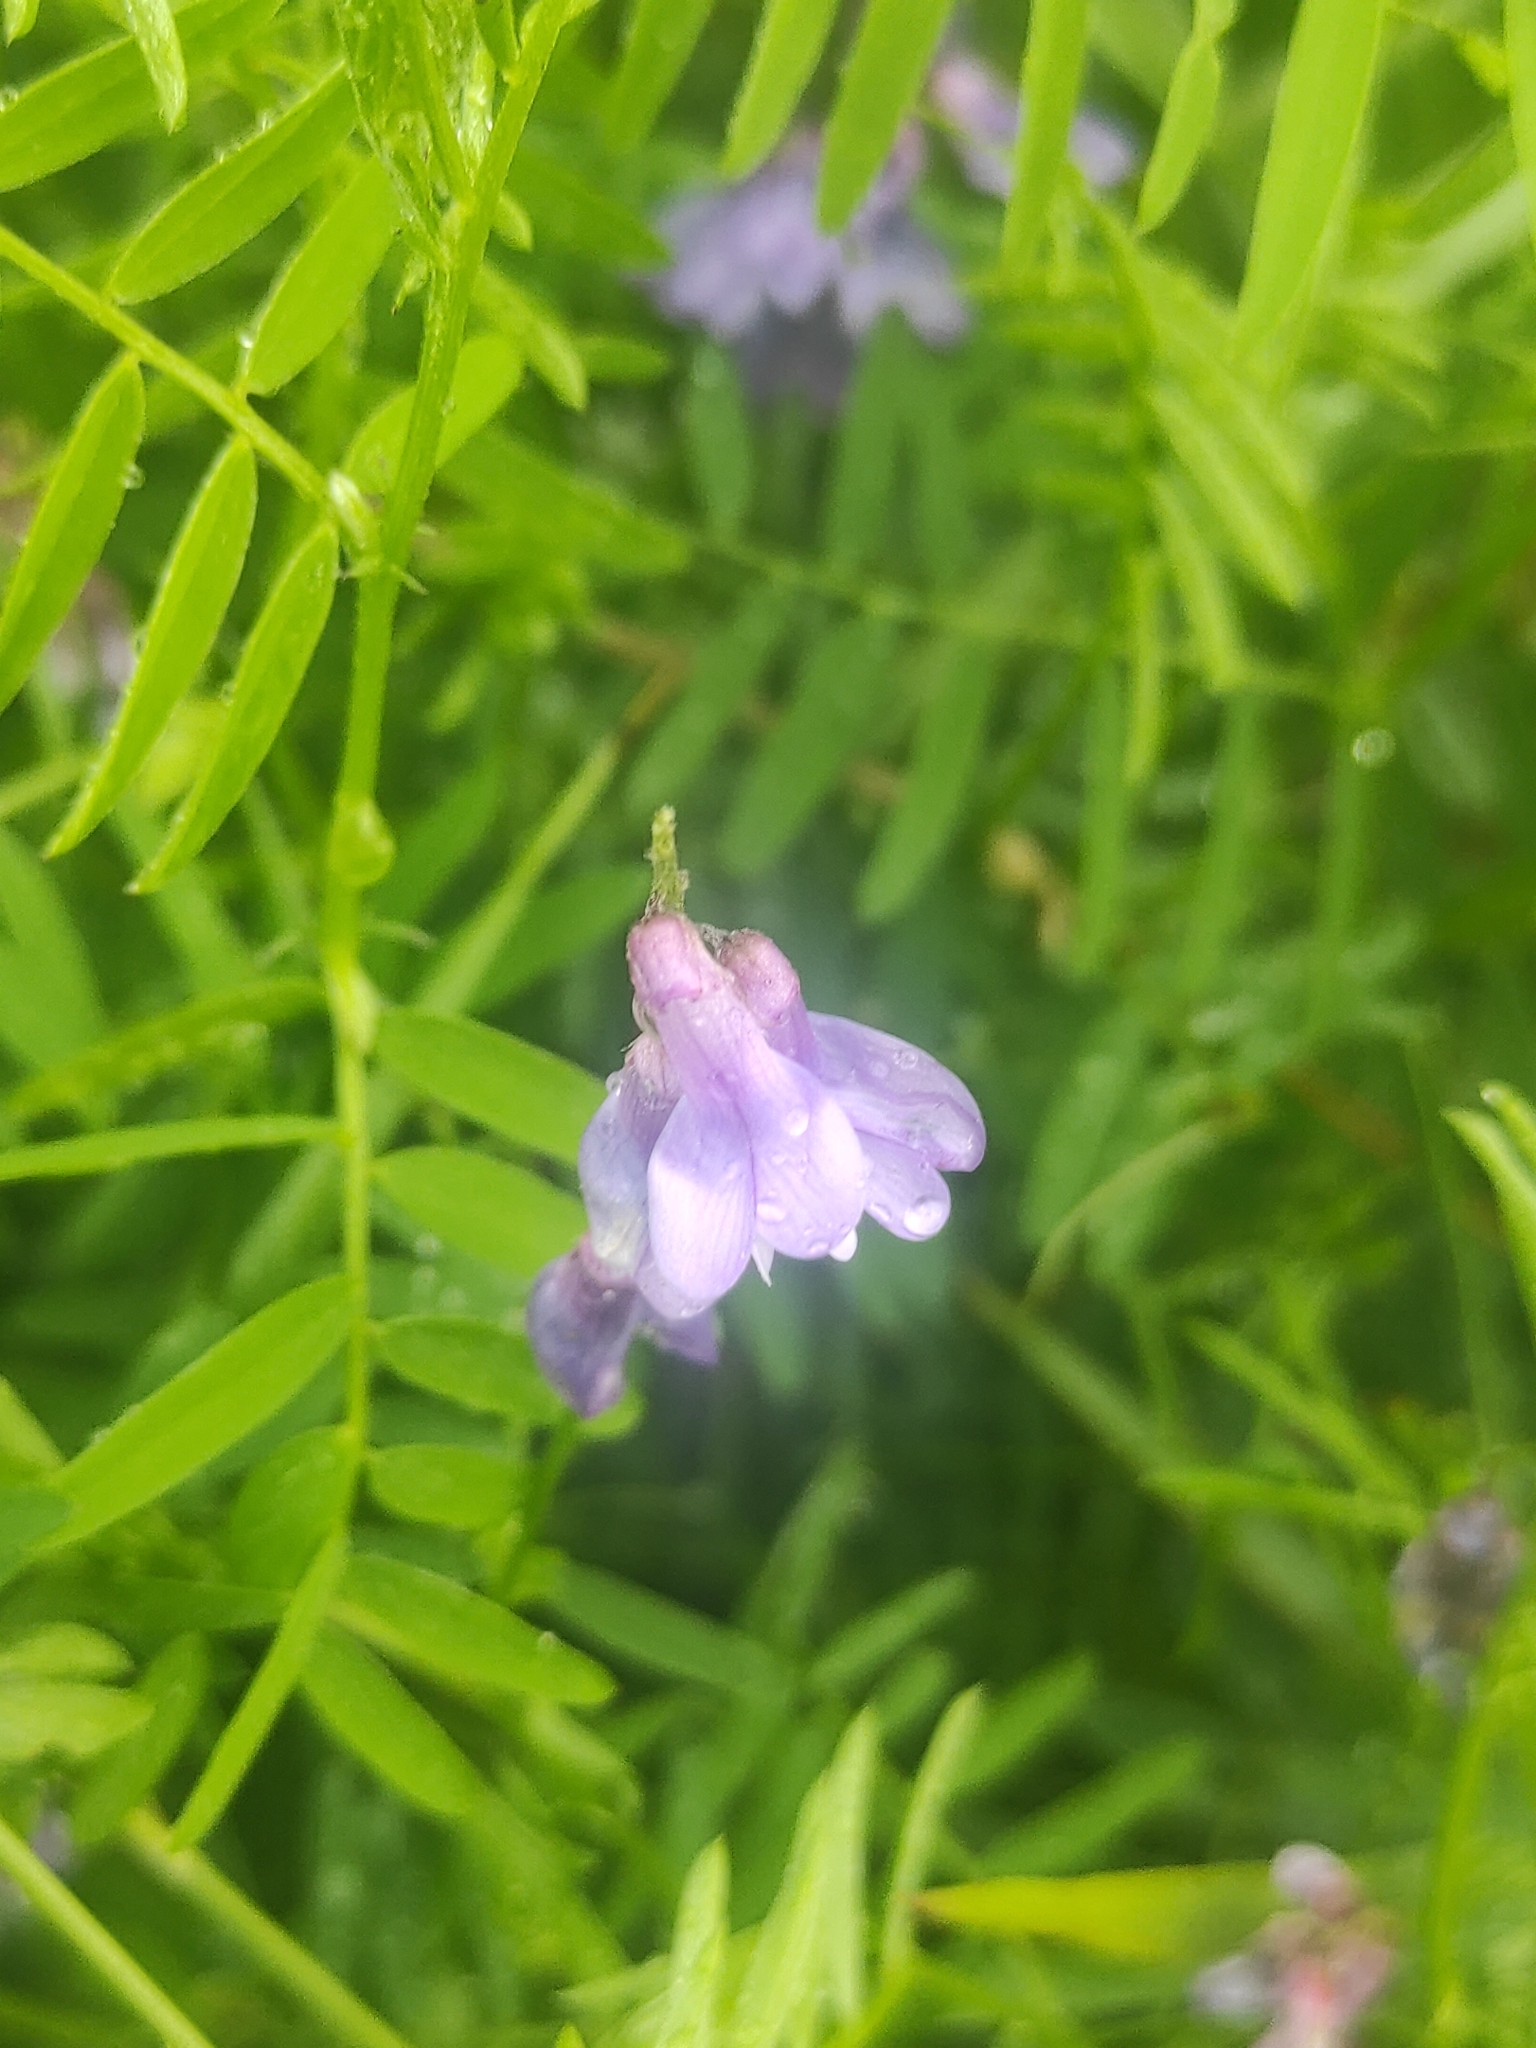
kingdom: Plantae
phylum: Tracheophyta
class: Magnoliopsida
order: Fabales
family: Fabaceae
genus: Vicia
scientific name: Vicia cracca
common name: Bird vetch
